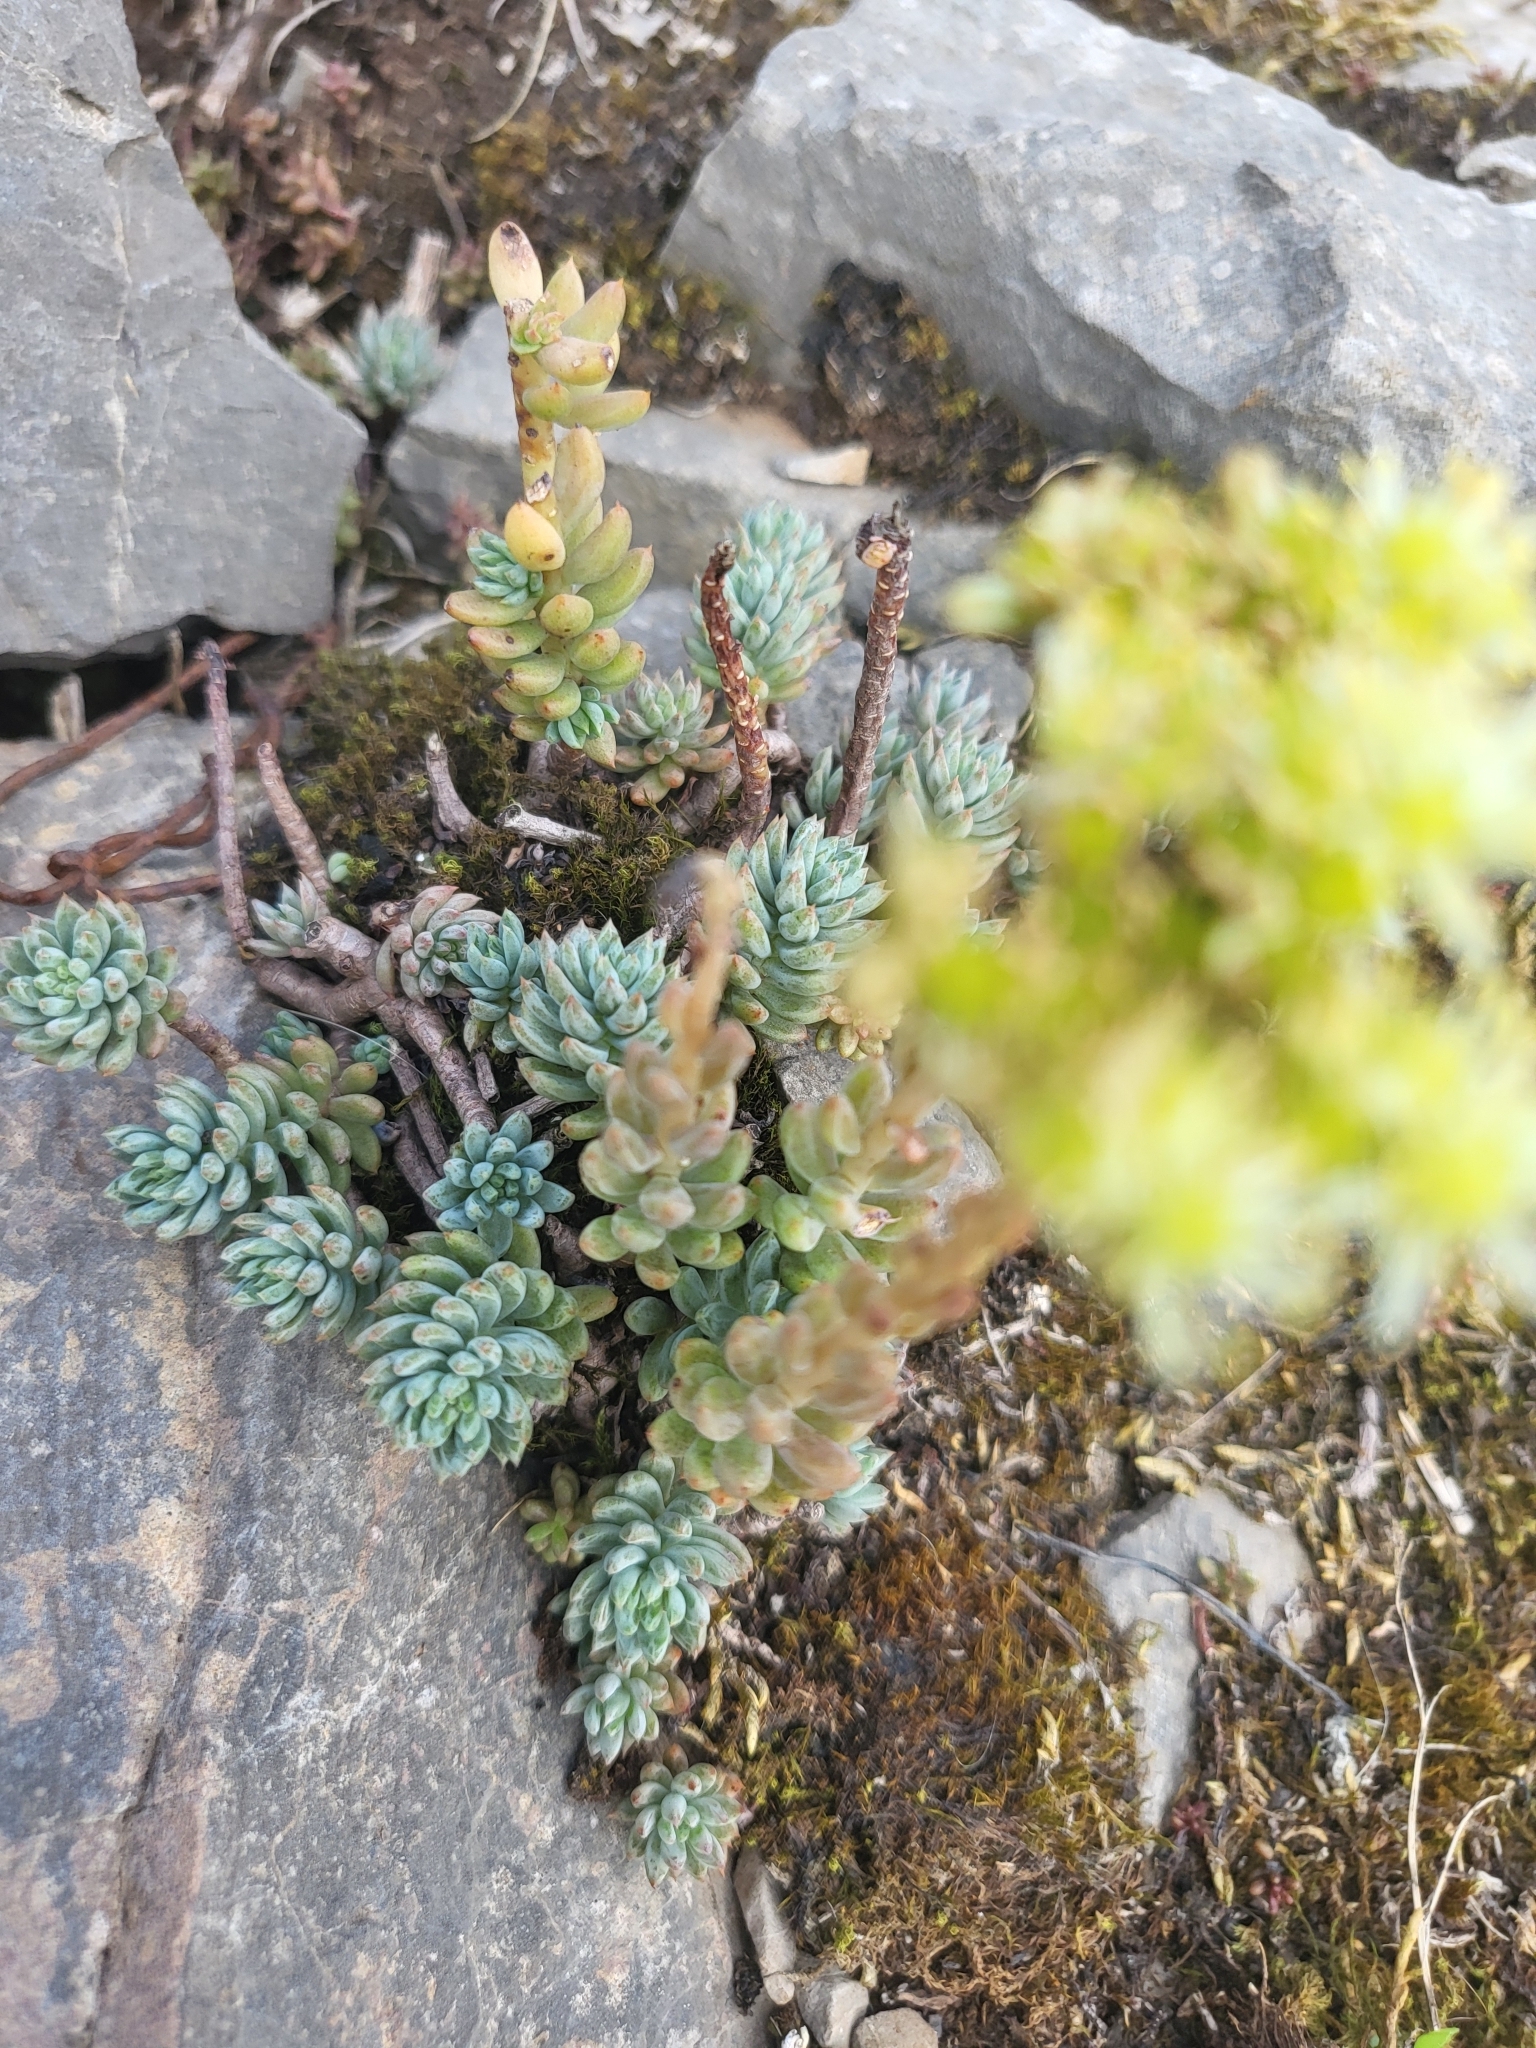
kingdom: Plantae
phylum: Tracheophyta
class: Magnoliopsida
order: Saxifragales
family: Crassulaceae
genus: Petrosedum
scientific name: Petrosedum sediforme
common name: Pale stonecrop
